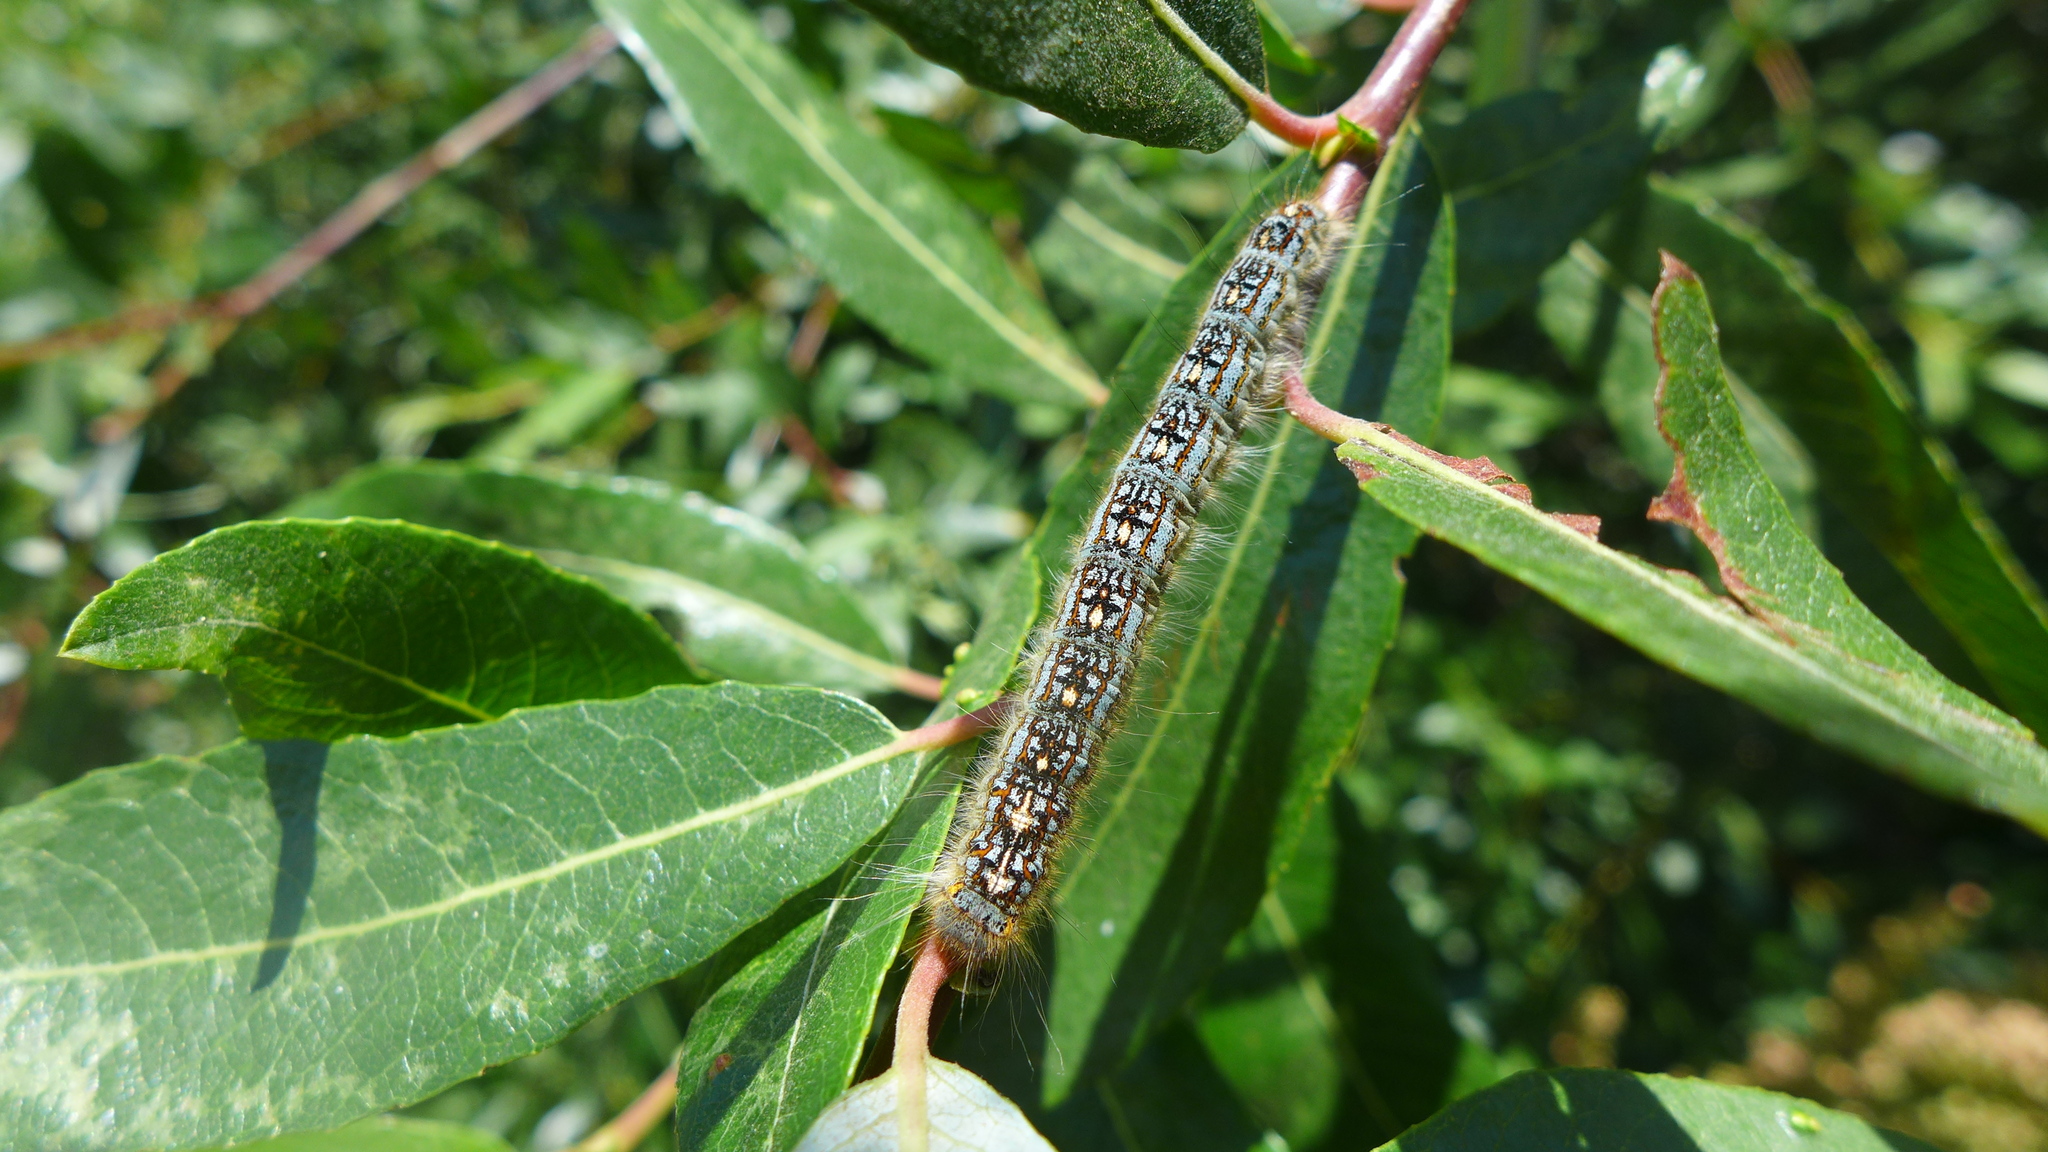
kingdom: Animalia
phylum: Arthropoda
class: Insecta
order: Lepidoptera
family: Lasiocampidae
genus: Malacosoma
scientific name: Malacosoma disstria
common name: Forest tent caterpillar
